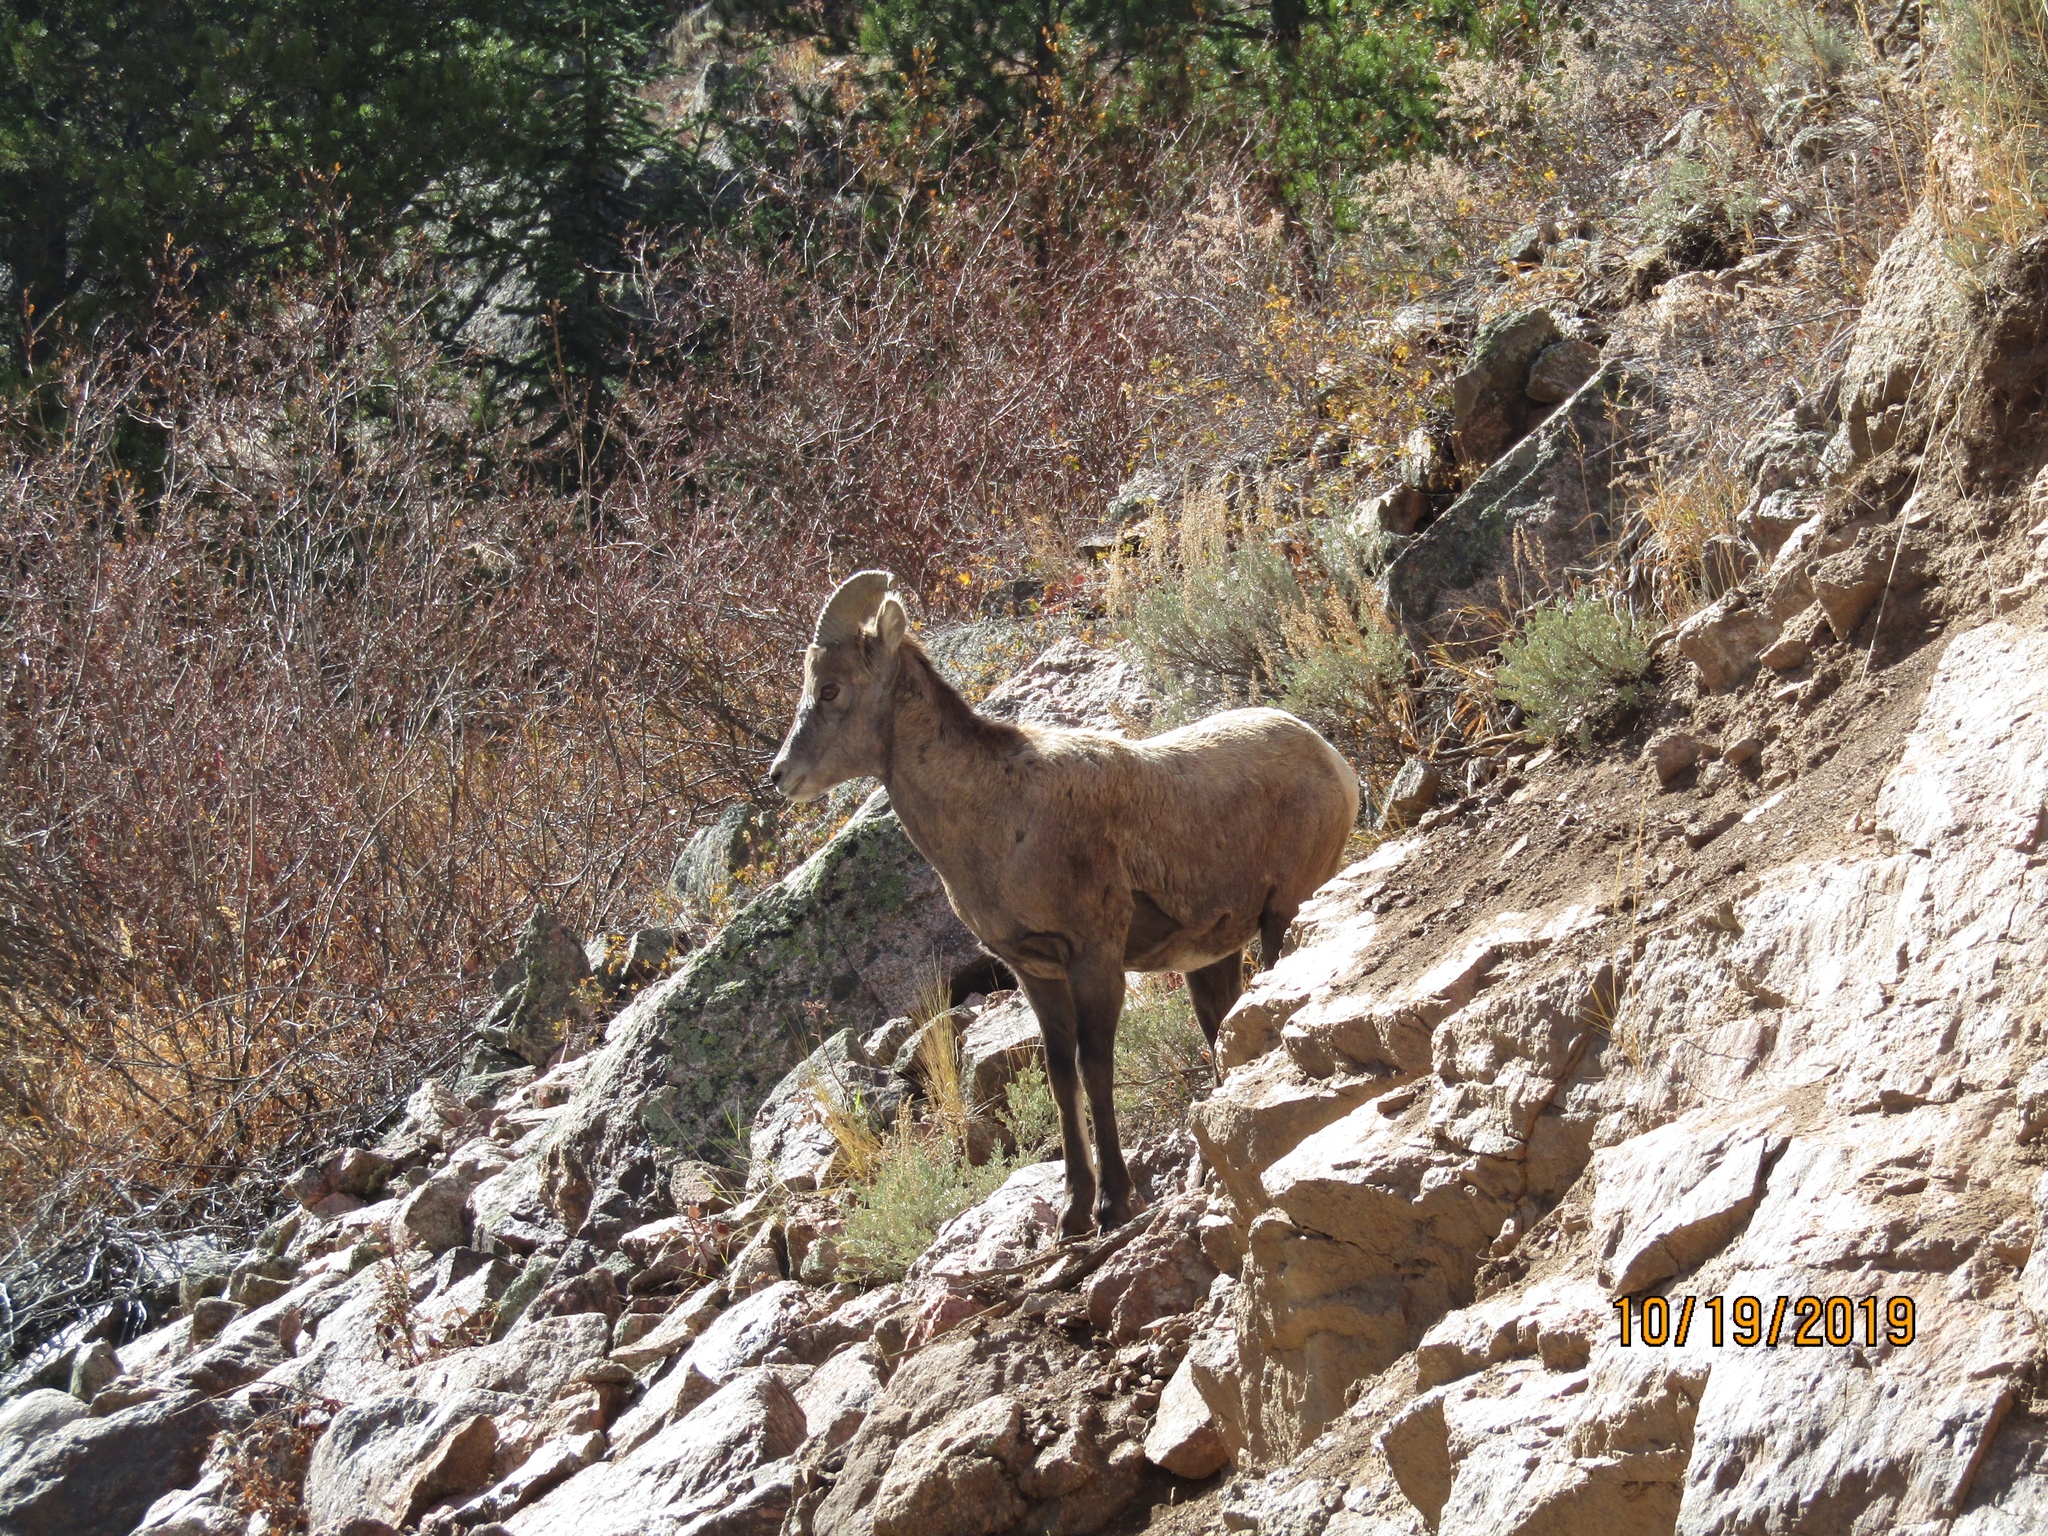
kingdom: Animalia
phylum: Chordata
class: Mammalia
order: Artiodactyla
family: Bovidae
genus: Ovis
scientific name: Ovis canadensis
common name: Bighorn sheep
